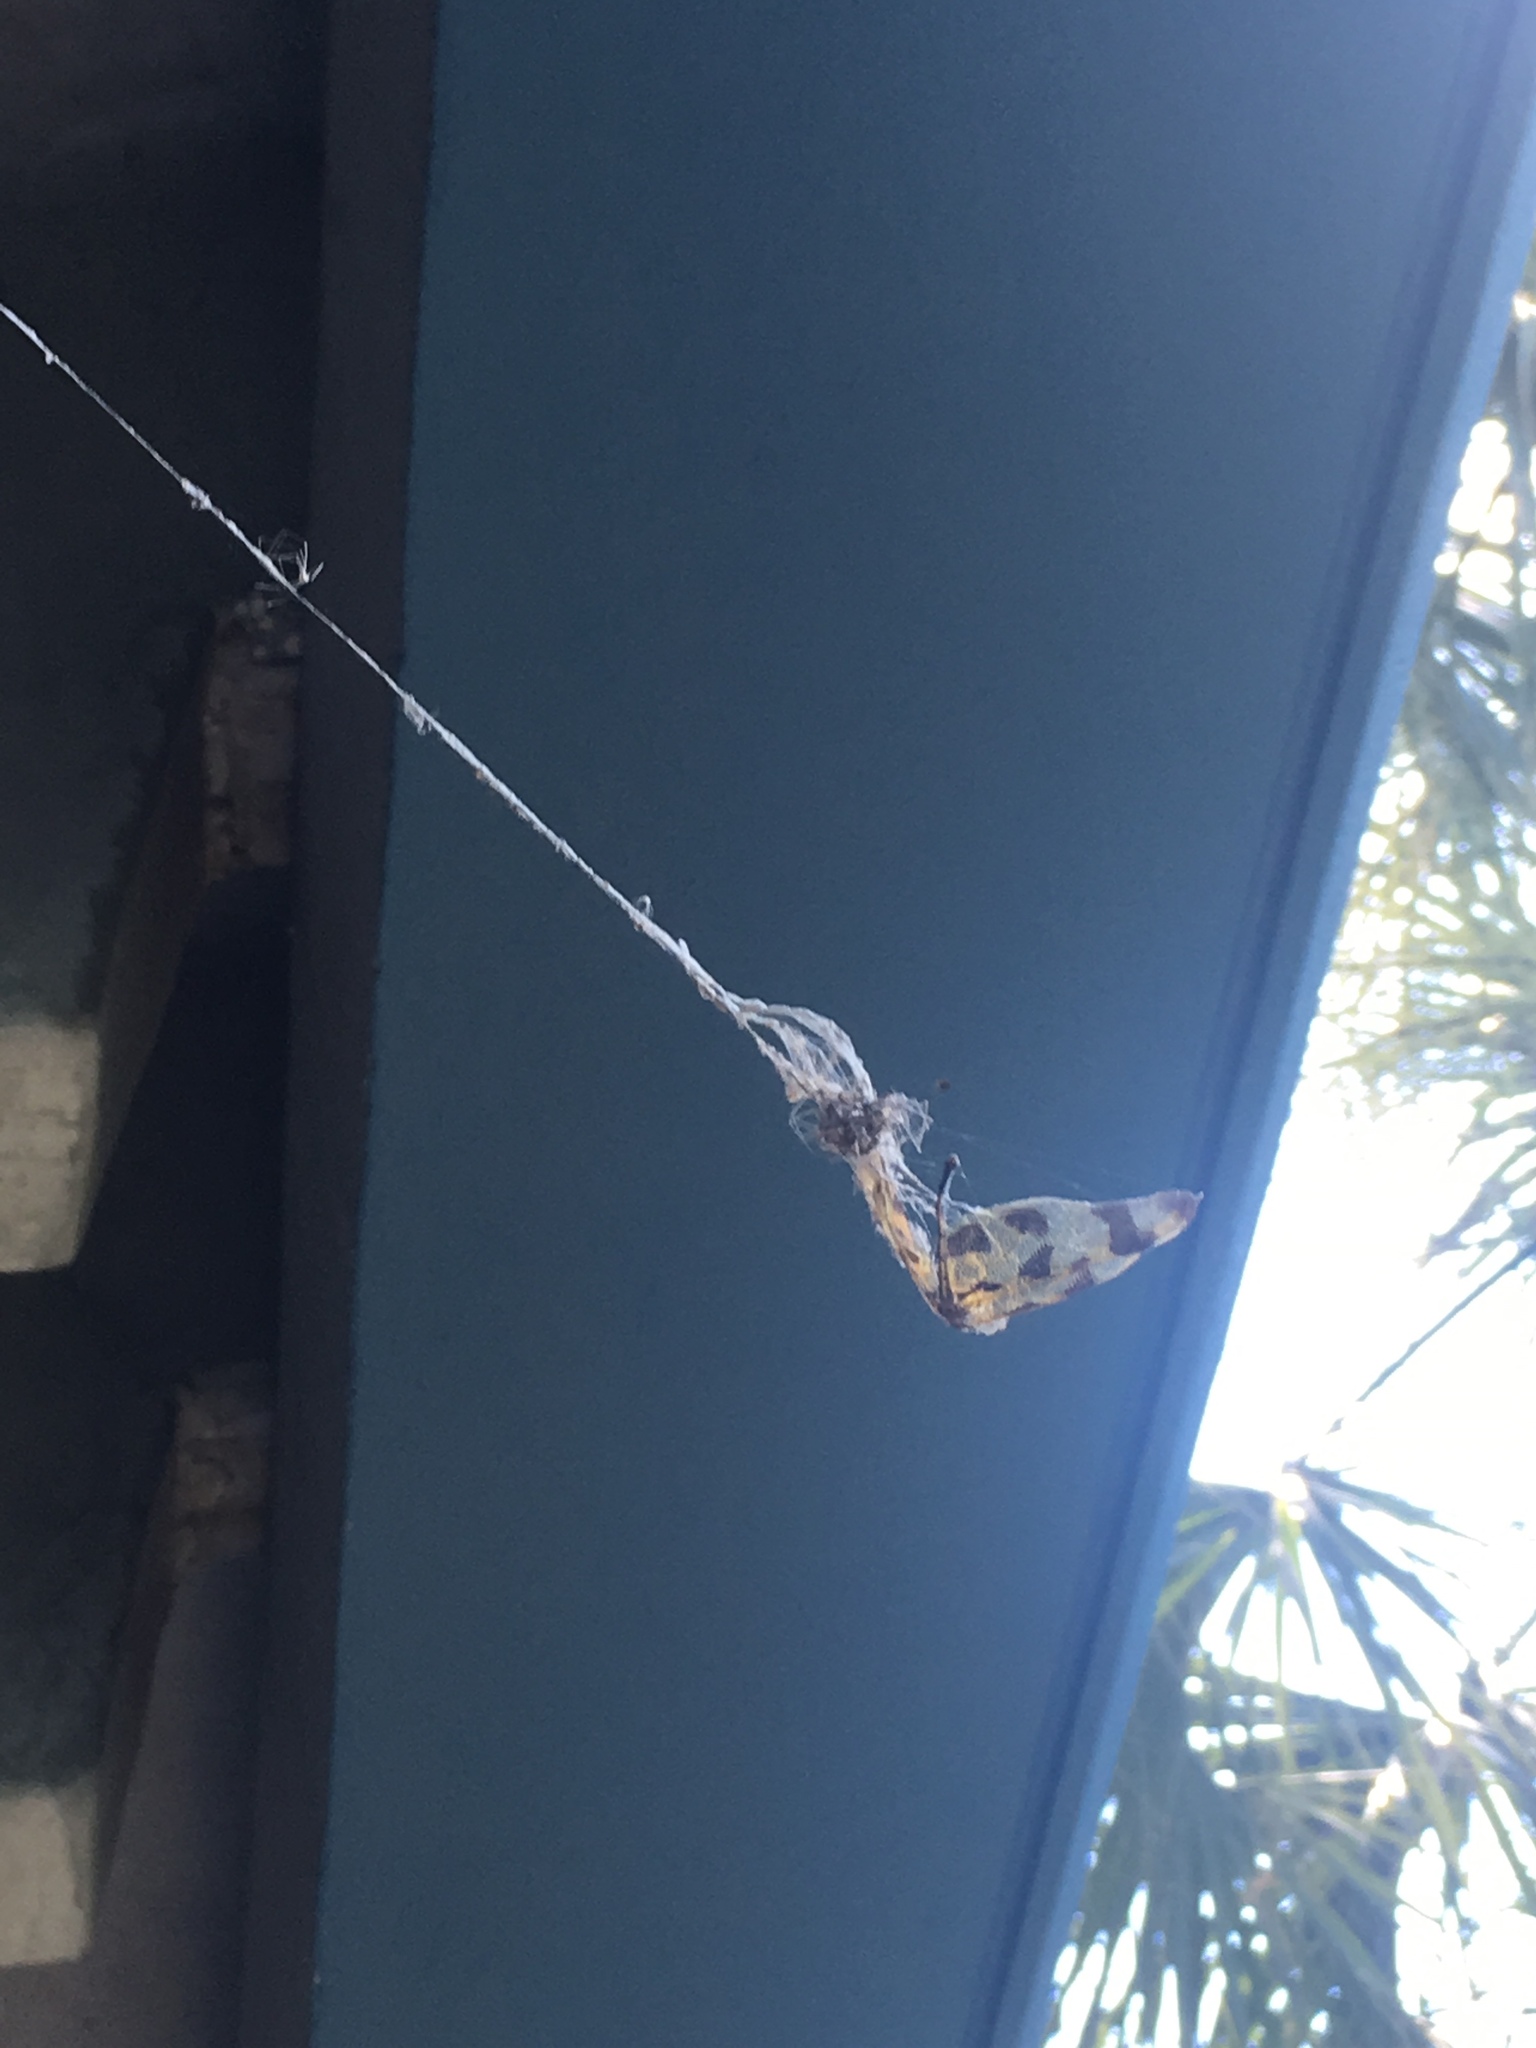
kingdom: Animalia
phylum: Arthropoda
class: Insecta
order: Odonata
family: Libellulidae
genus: Celithemis
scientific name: Celithemis eponina
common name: Halloween pennant
